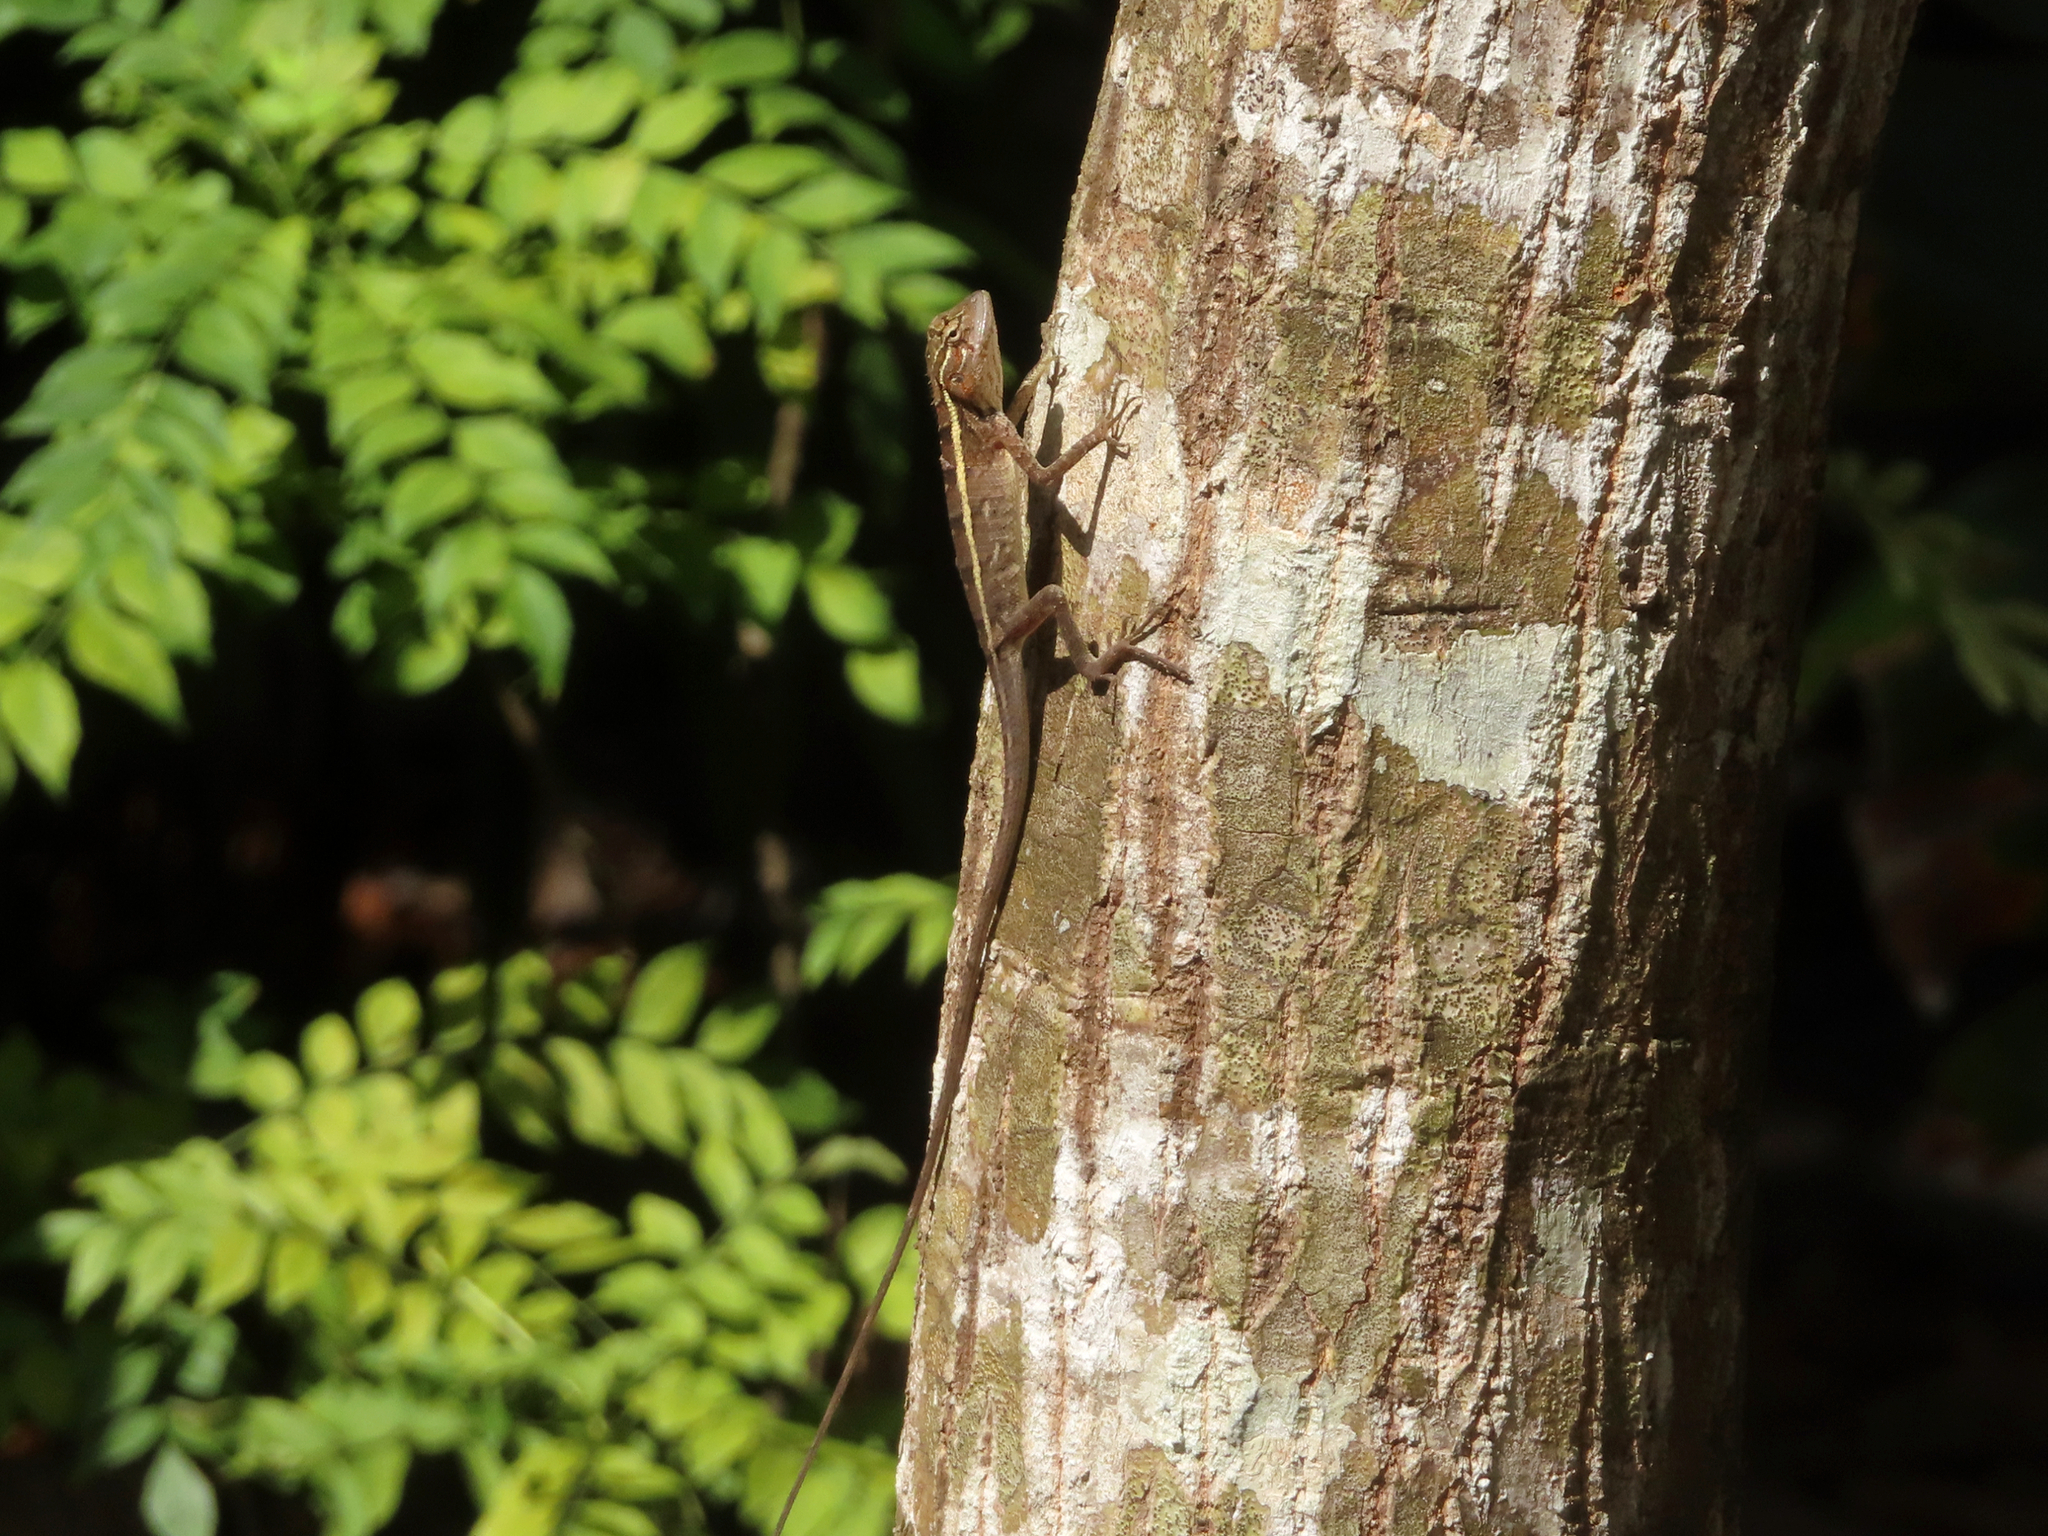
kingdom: Animalia
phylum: Chordata
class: Squamata
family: Agamidae
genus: Calotes
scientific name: Calotes versicolor
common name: Oriental garden lizard
